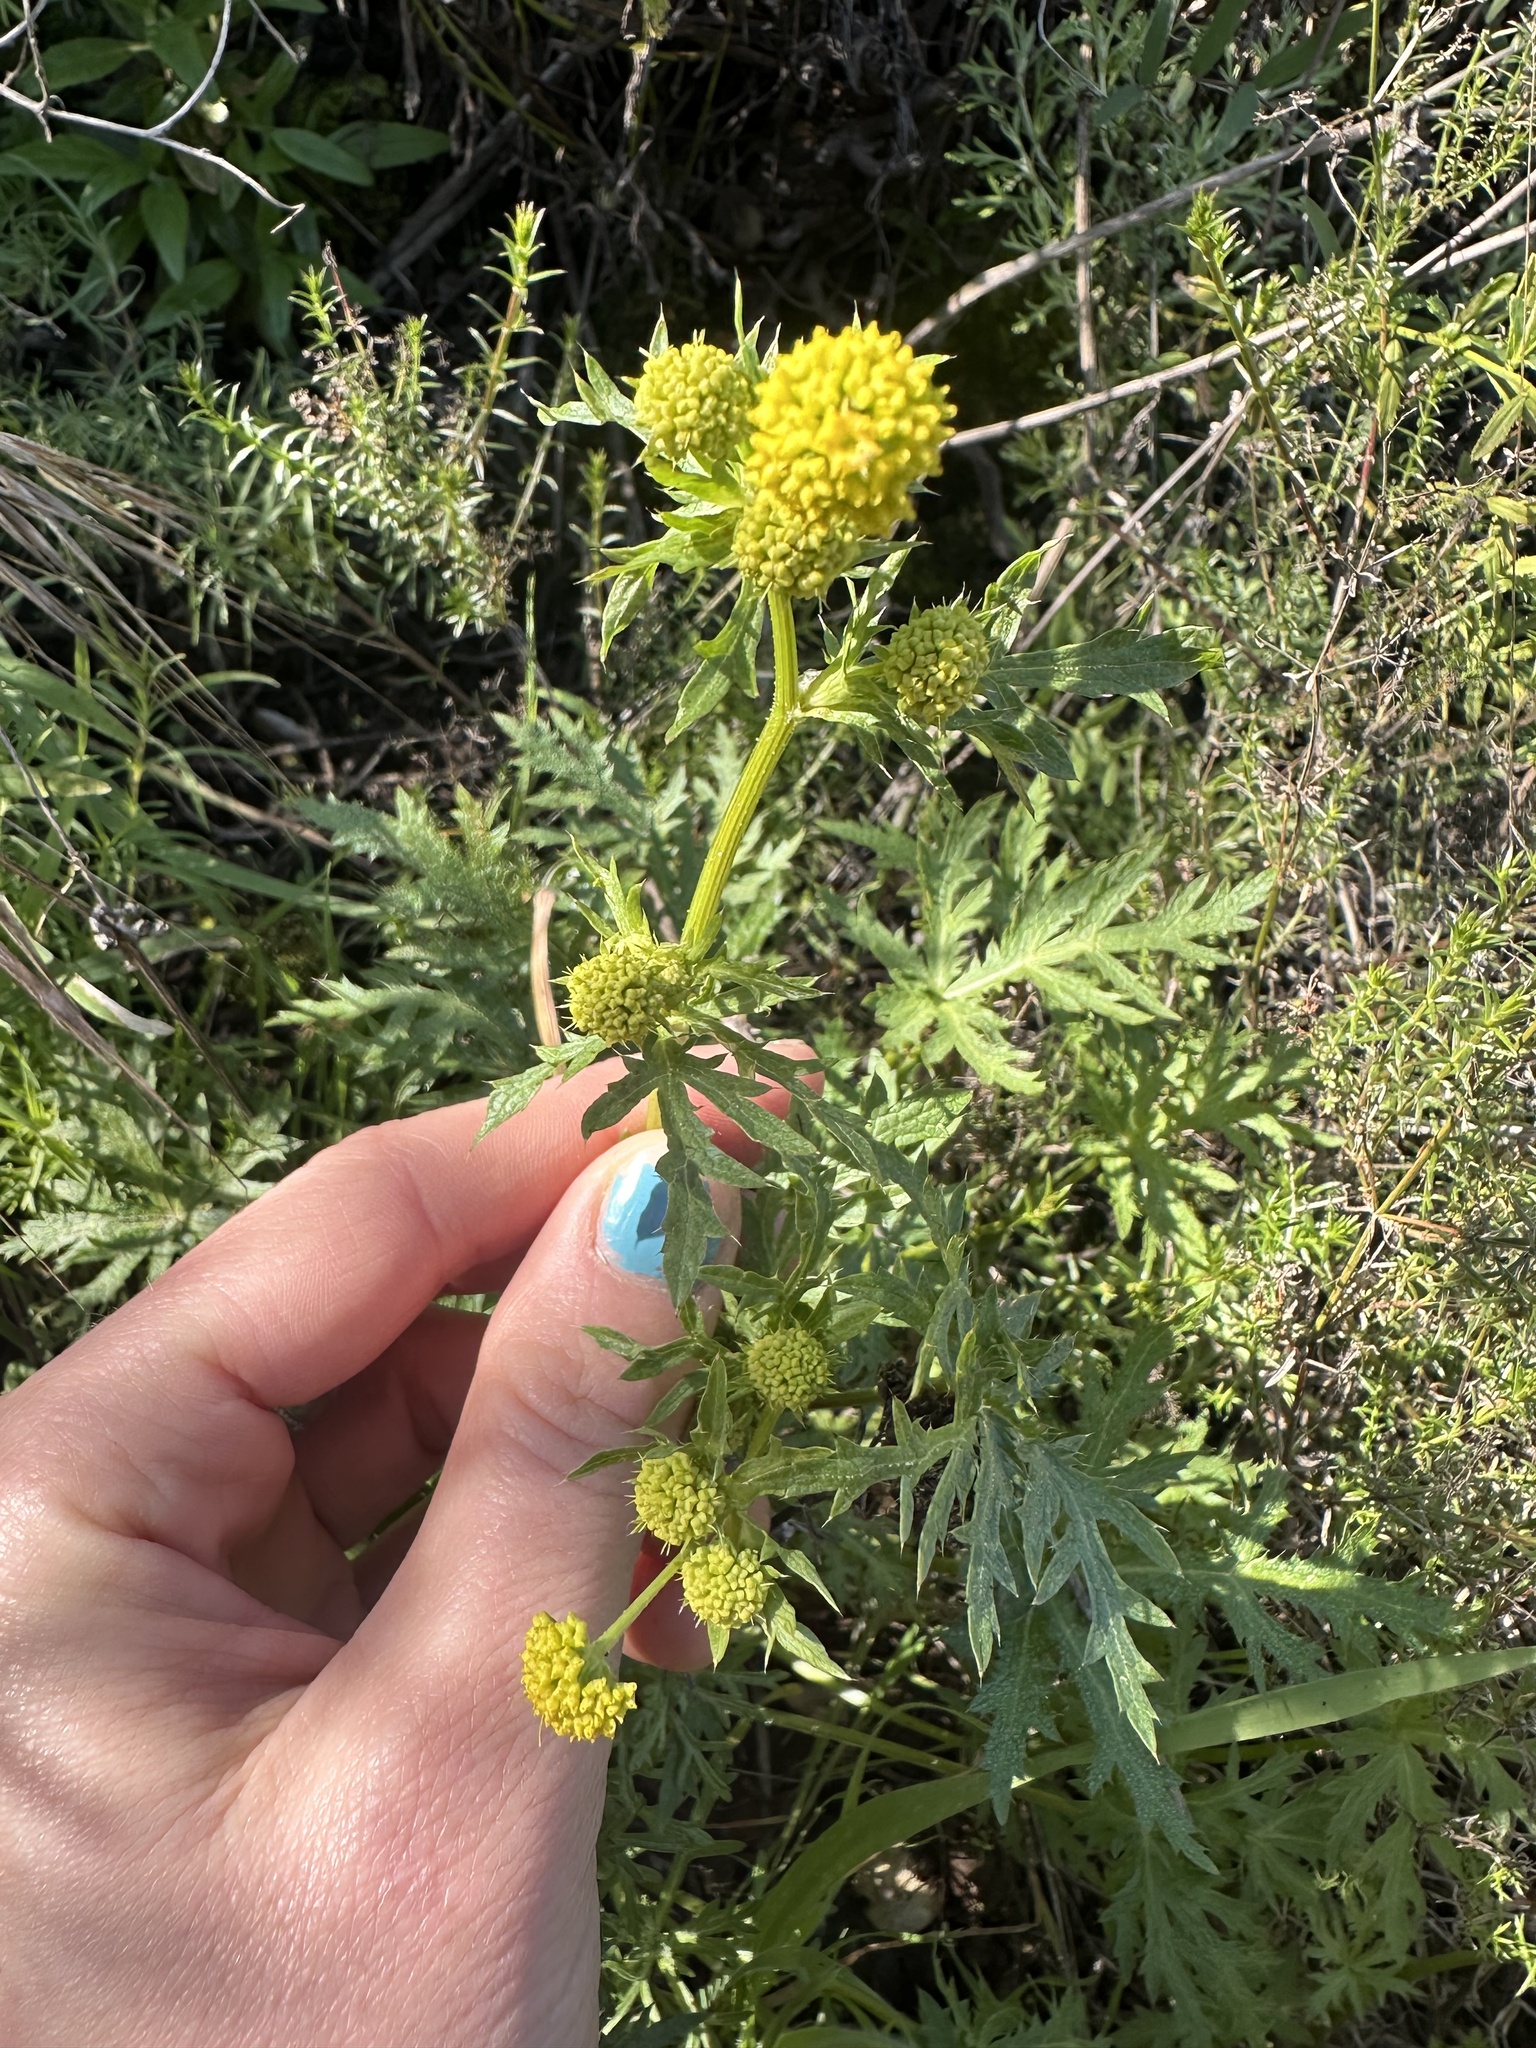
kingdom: Plantae
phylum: Tracheophyta
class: Magnoliopsida
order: Apiales
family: Apiaceae
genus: Sanicula
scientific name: Sanicula arguta
